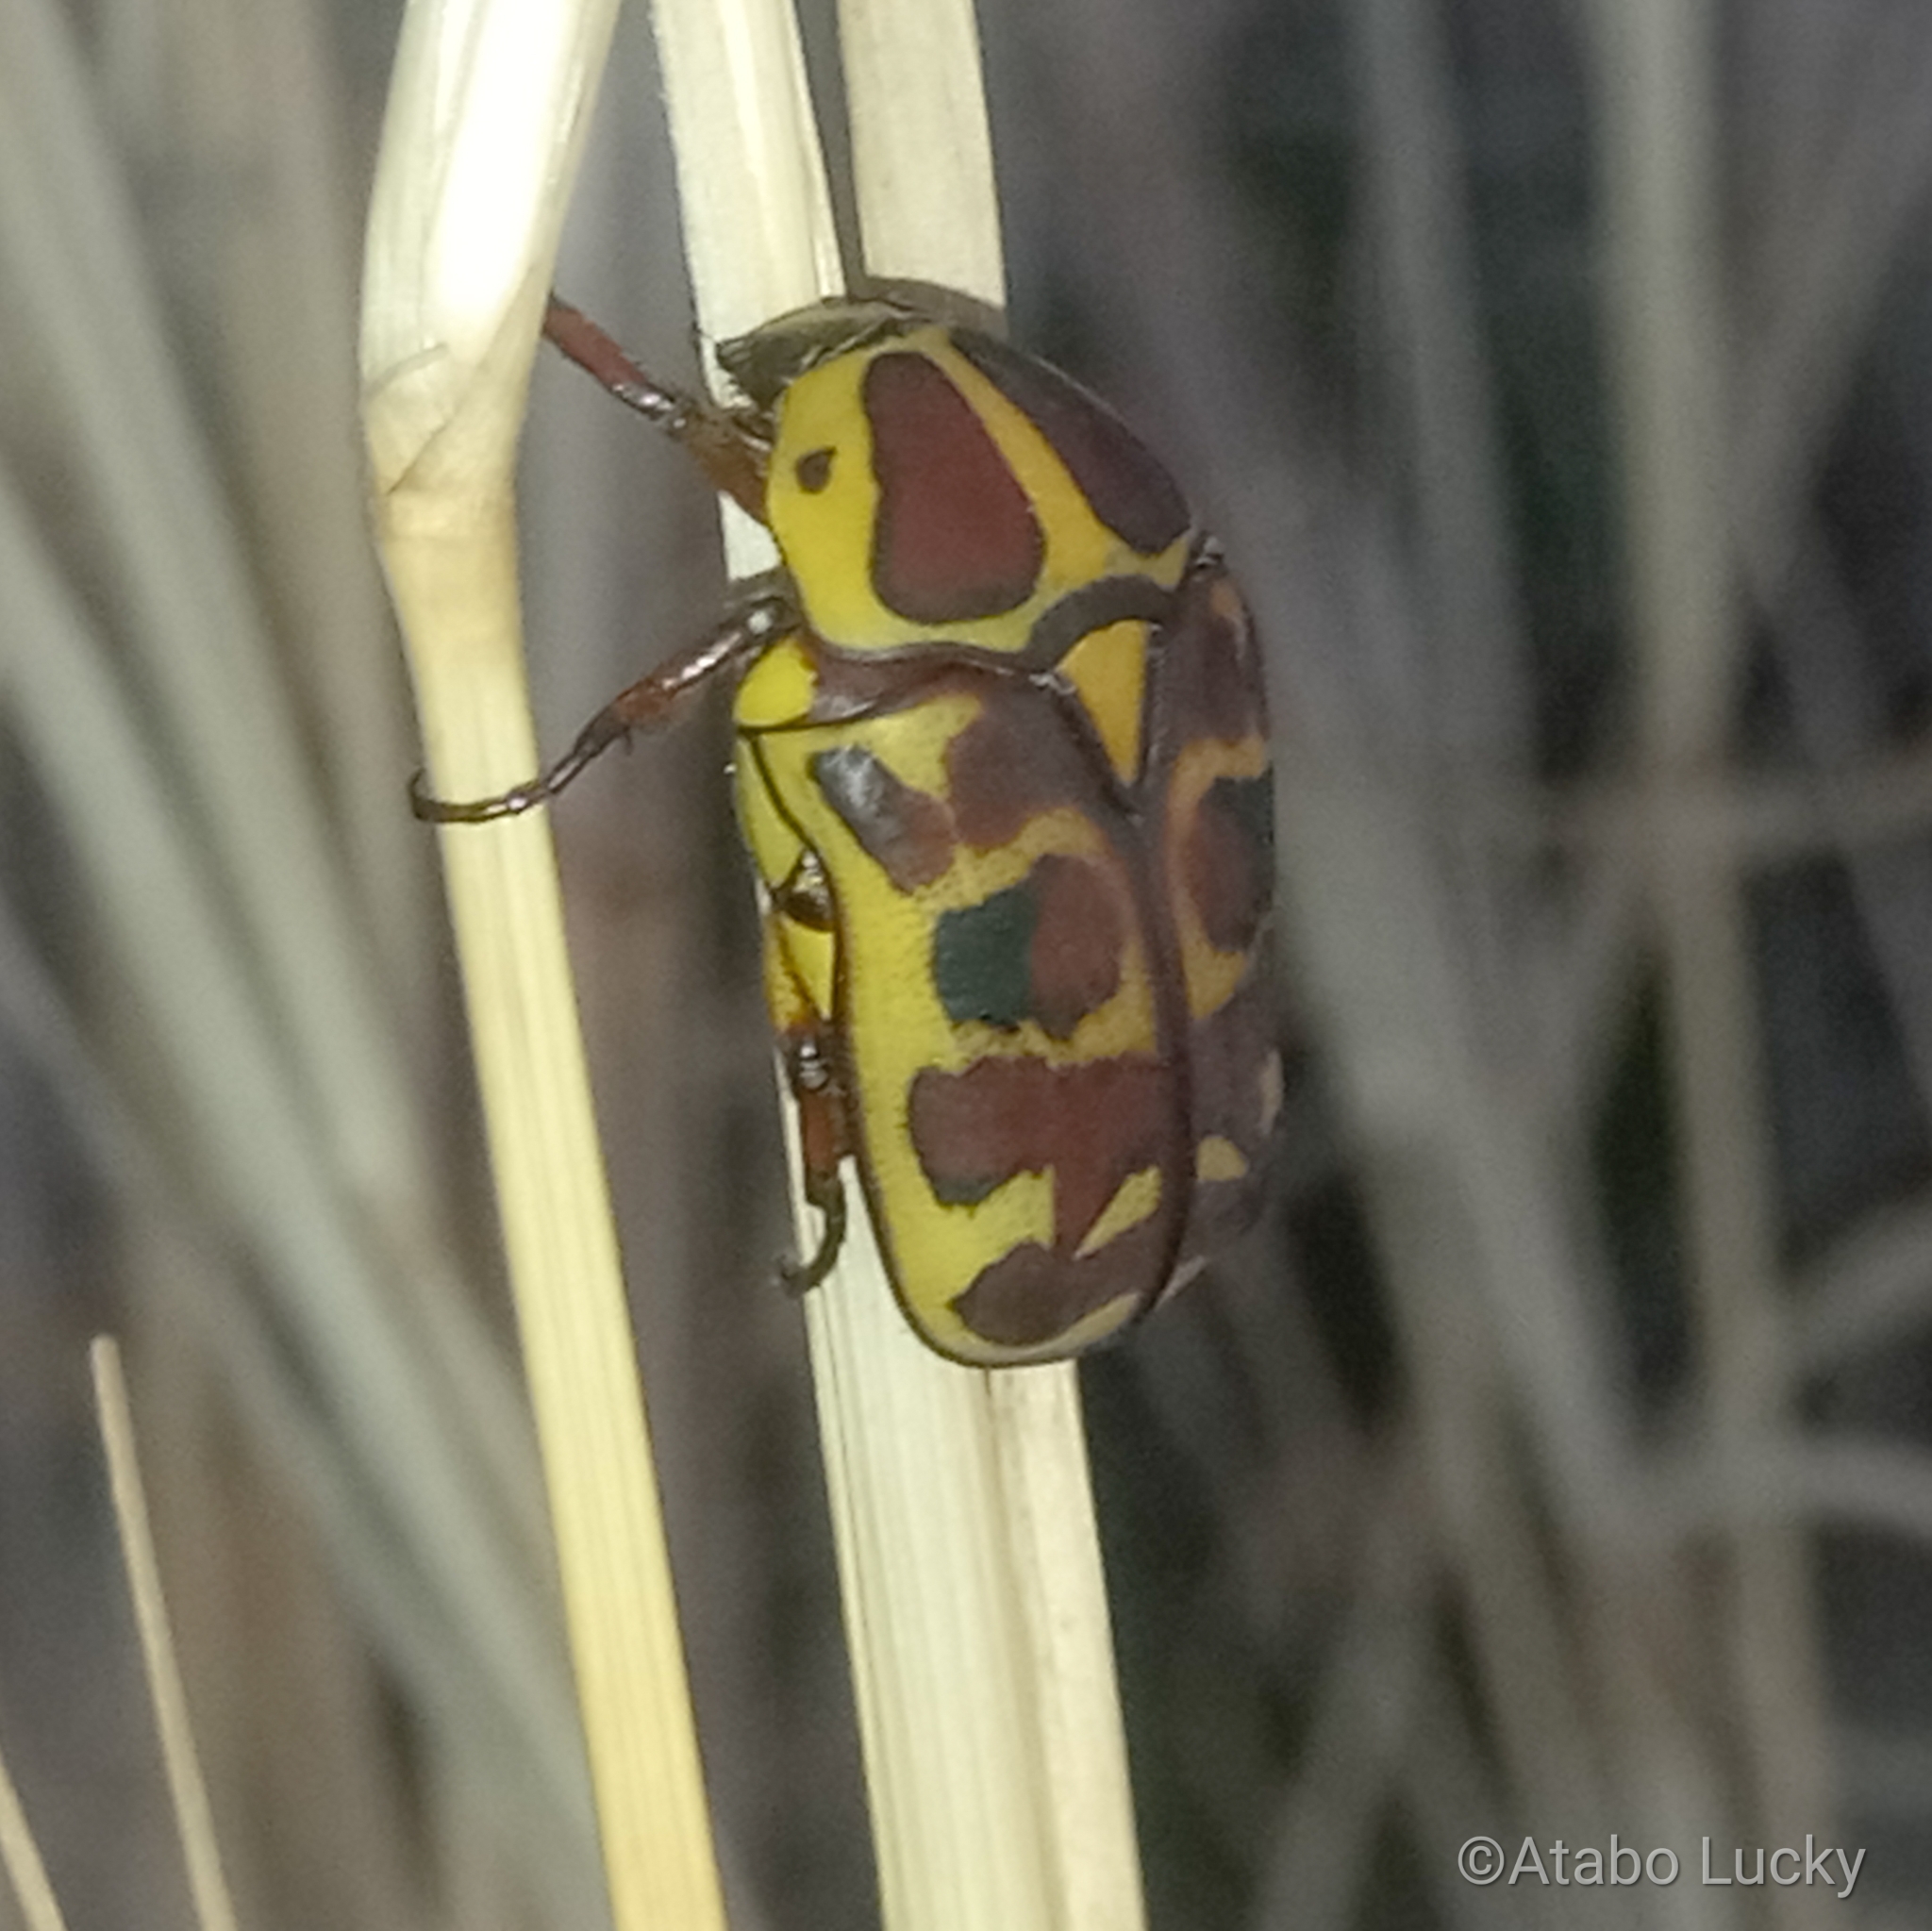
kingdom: Animalia
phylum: Arthropoda
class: Insecta
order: Coleoptera
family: Scarabaeidae
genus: Pachnoda
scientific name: Pachnoda cordata
